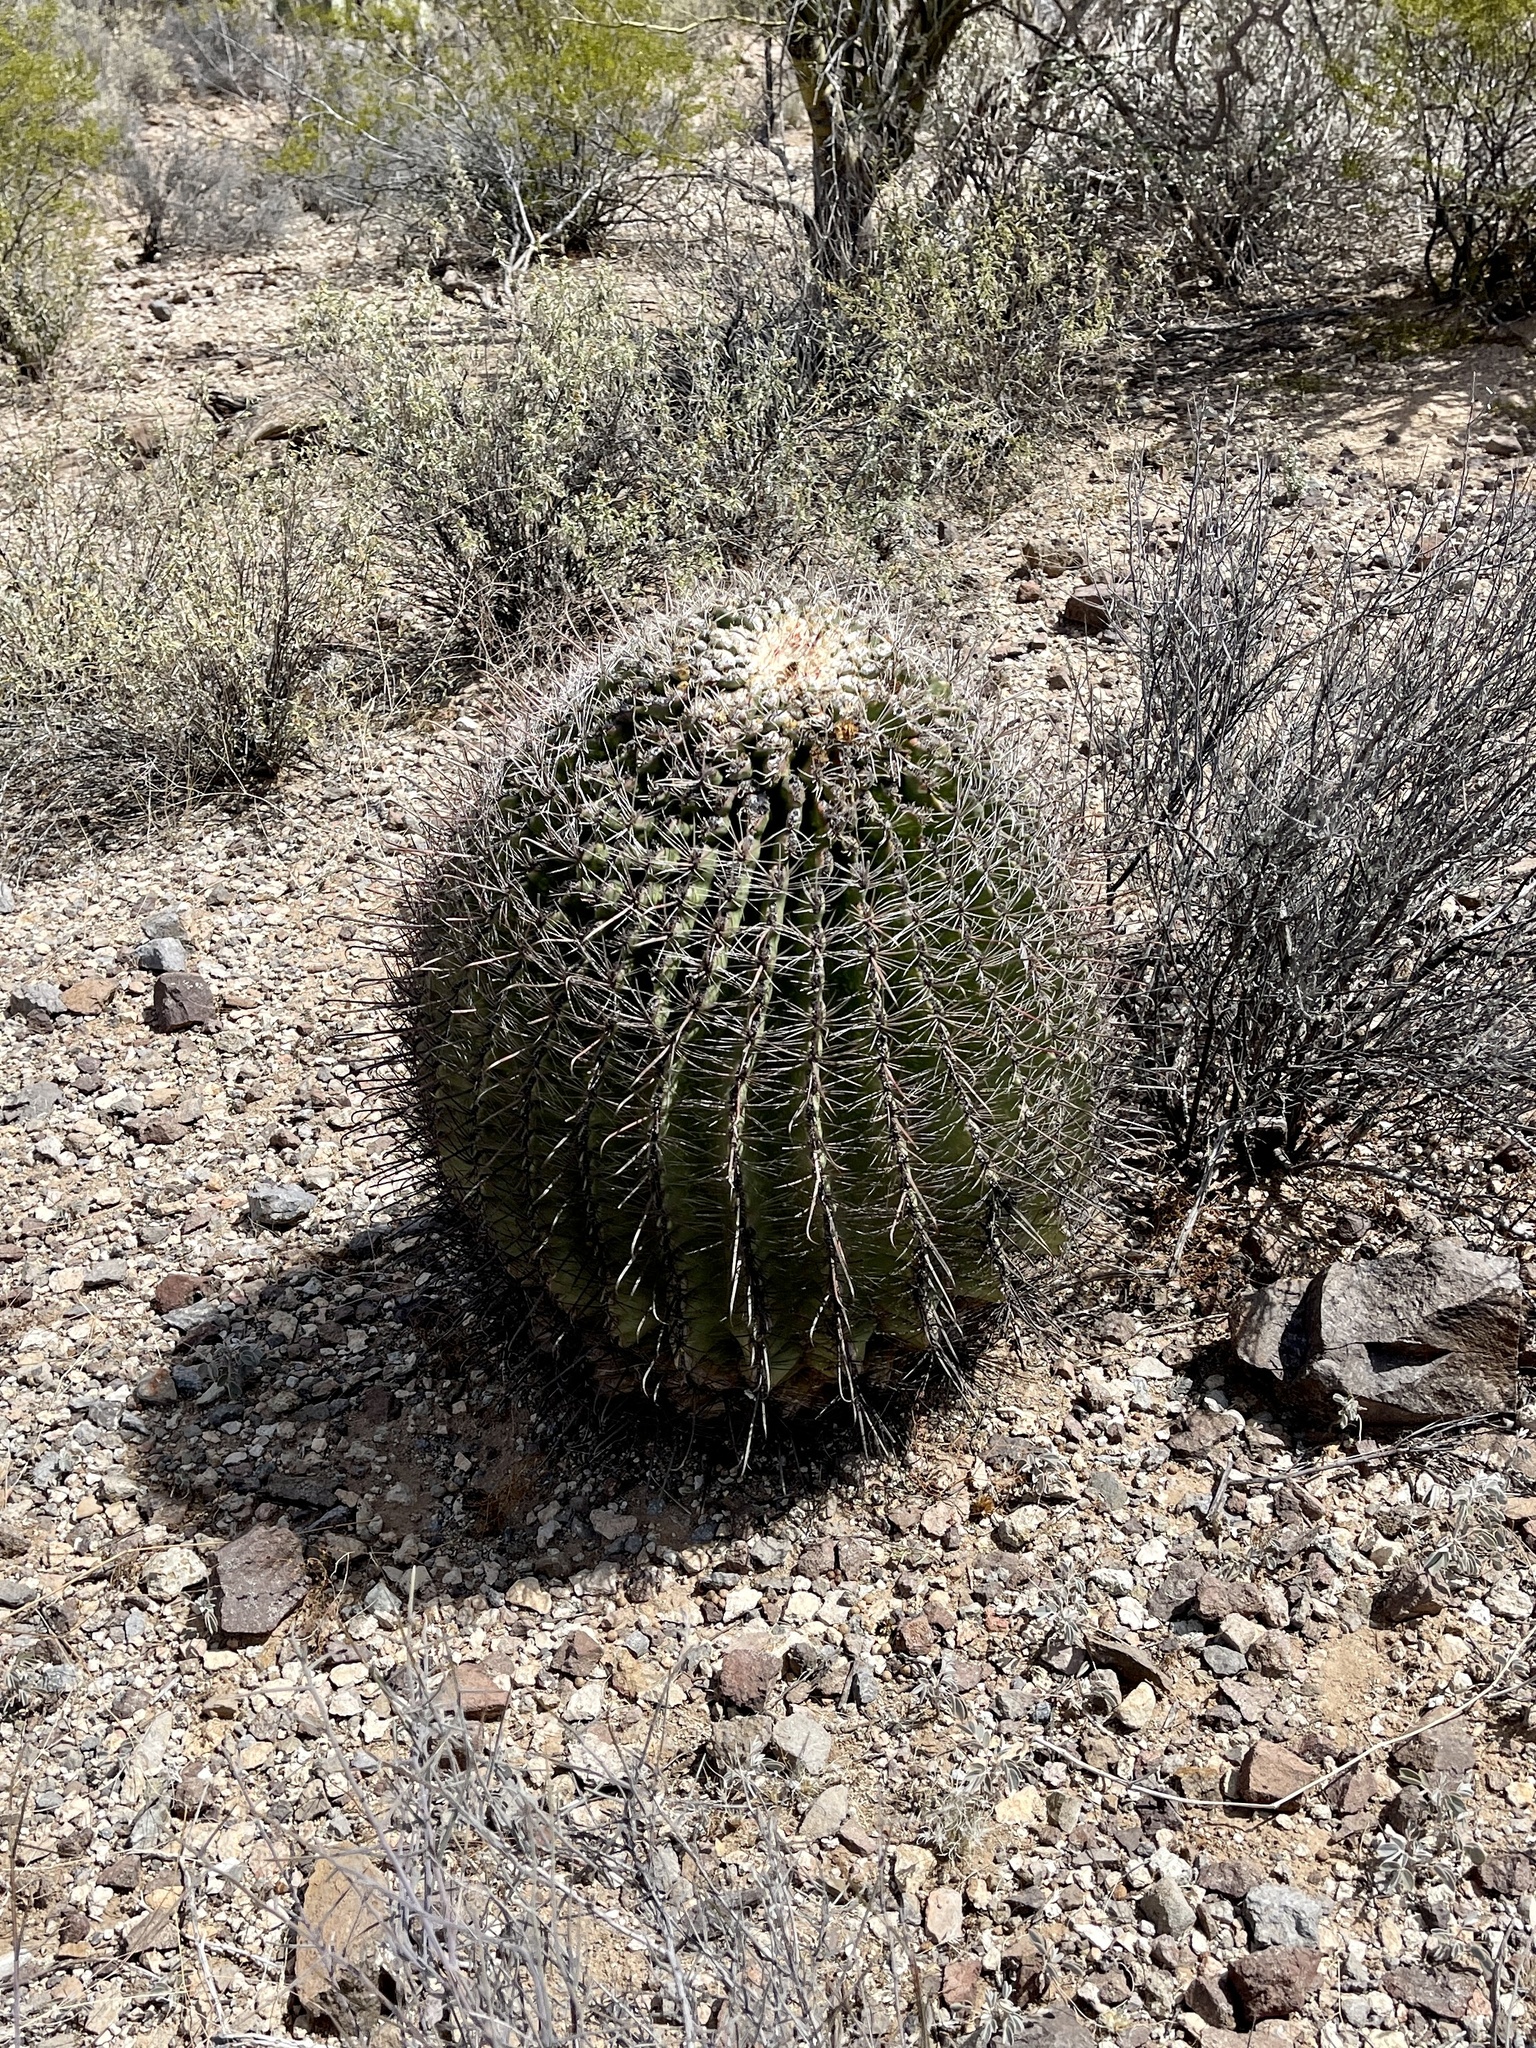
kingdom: Plantae
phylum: Tracheophyta
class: Magnoliopsida
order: Caryophyllales
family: Cactaceae
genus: Ferocactus
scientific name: Ferocactus wislizeni
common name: Candy barrel cactus
